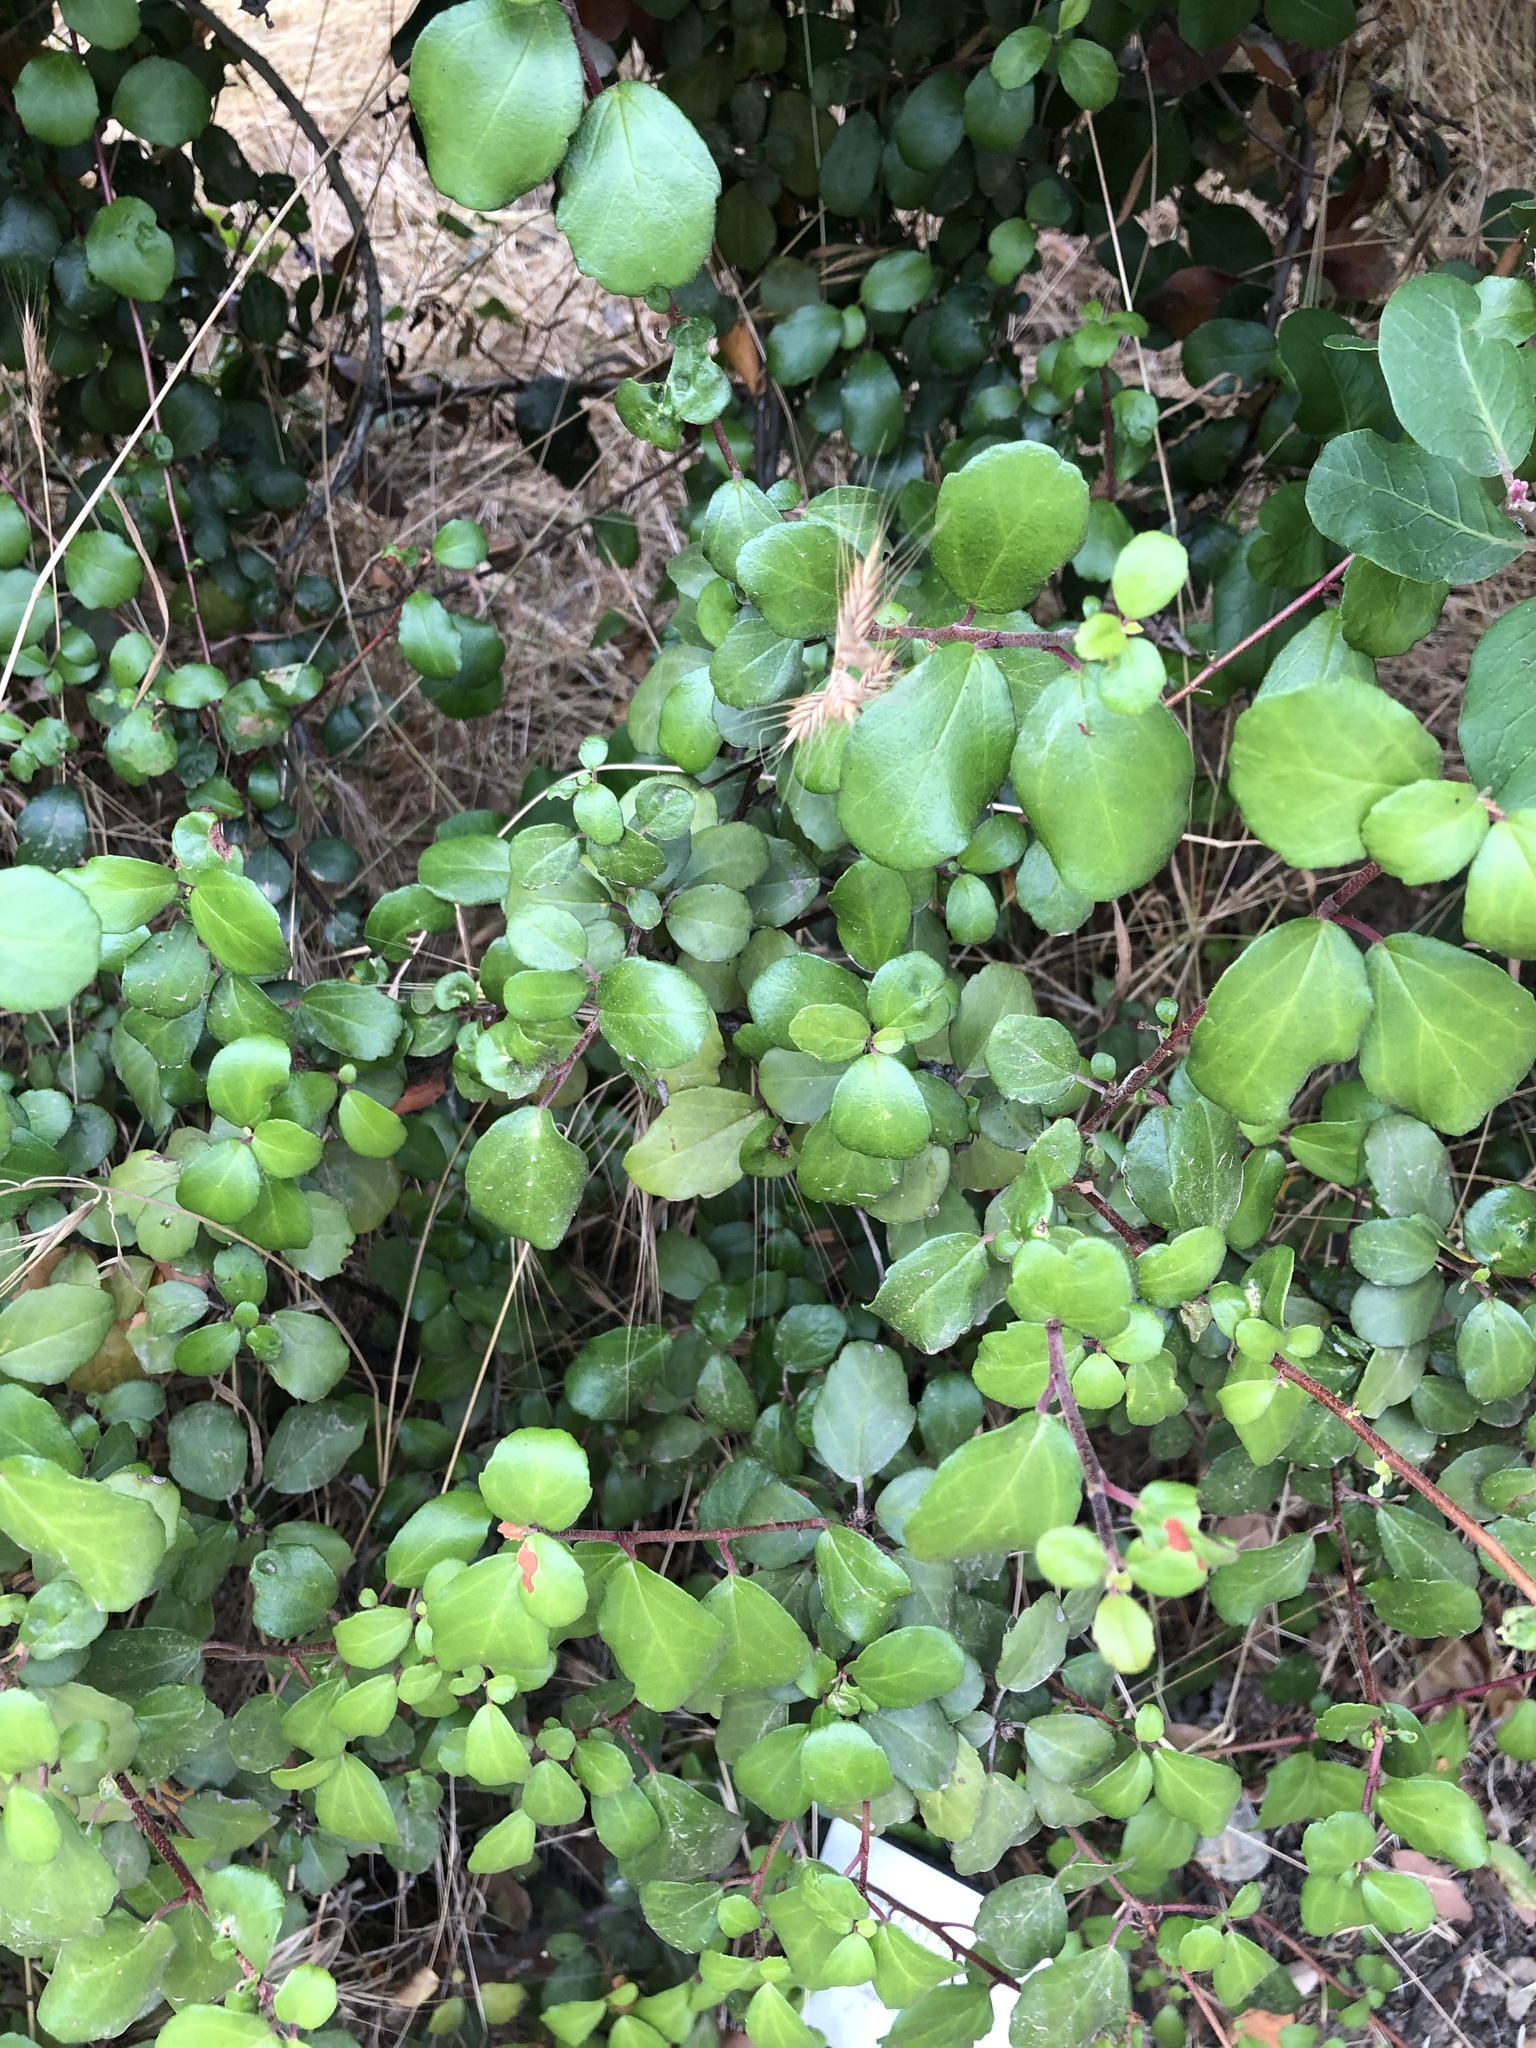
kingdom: Plantae
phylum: Tracheophyta
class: Magnoliopsida
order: Saxifragales
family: Grossulariaceae
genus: Ribes
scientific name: Ribes viburnifolium
